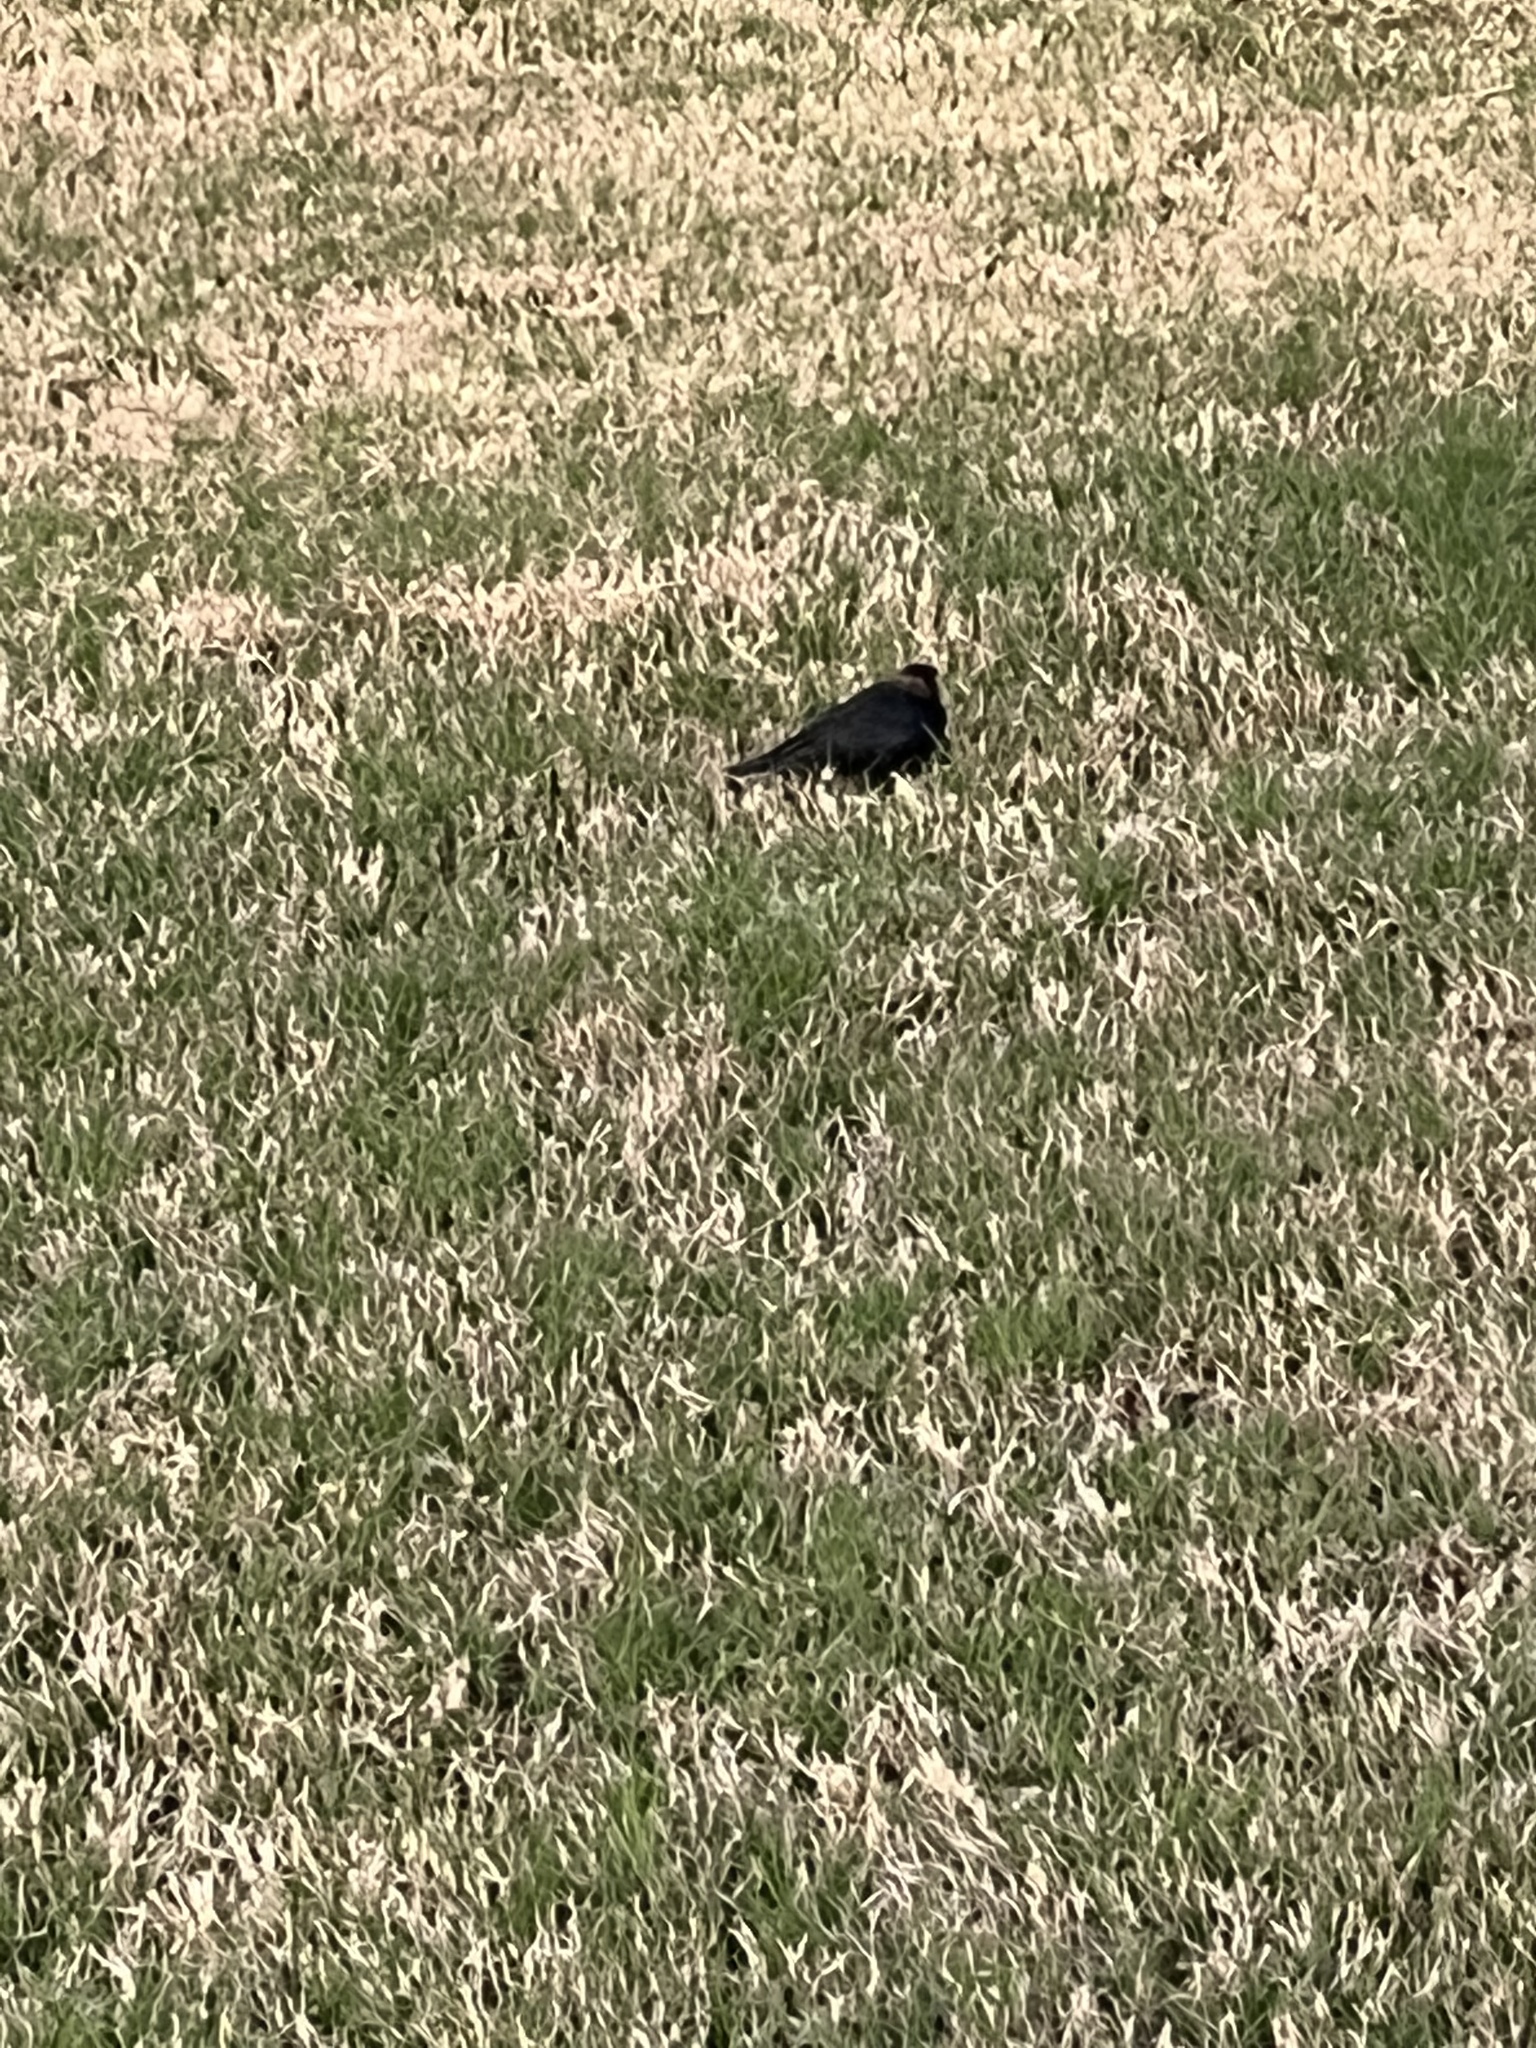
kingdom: Animalia
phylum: Chordata
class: Aves
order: Passeriformes
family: Icteridae
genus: Molothrus
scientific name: Molothrus ater
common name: Brown-headed cowbird
